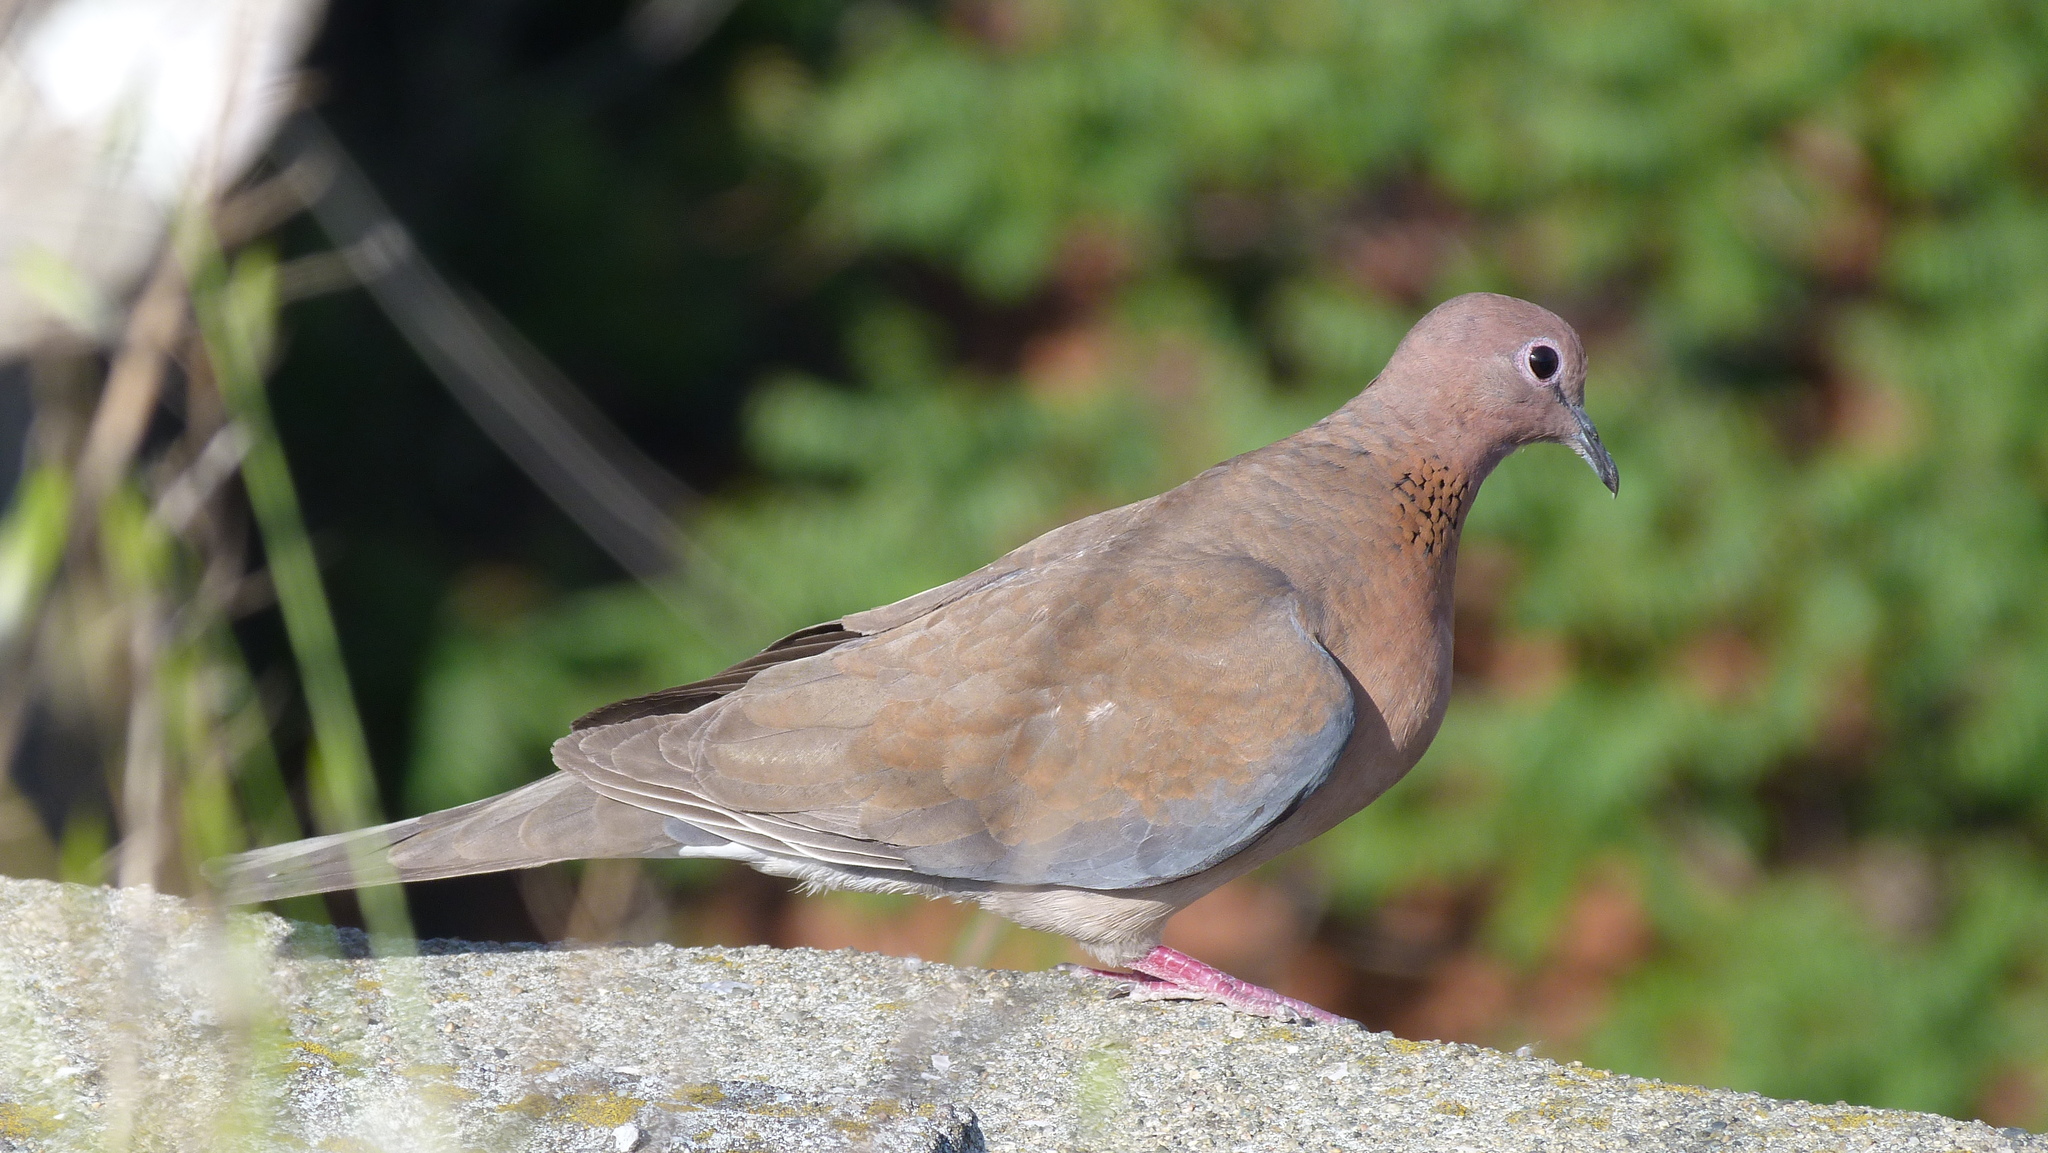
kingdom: Animalia
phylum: Chordata
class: Aves
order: Columbiformes
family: Columbidae
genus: Spilopelia
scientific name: Spilopelia senegalensis
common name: Laughing dove
